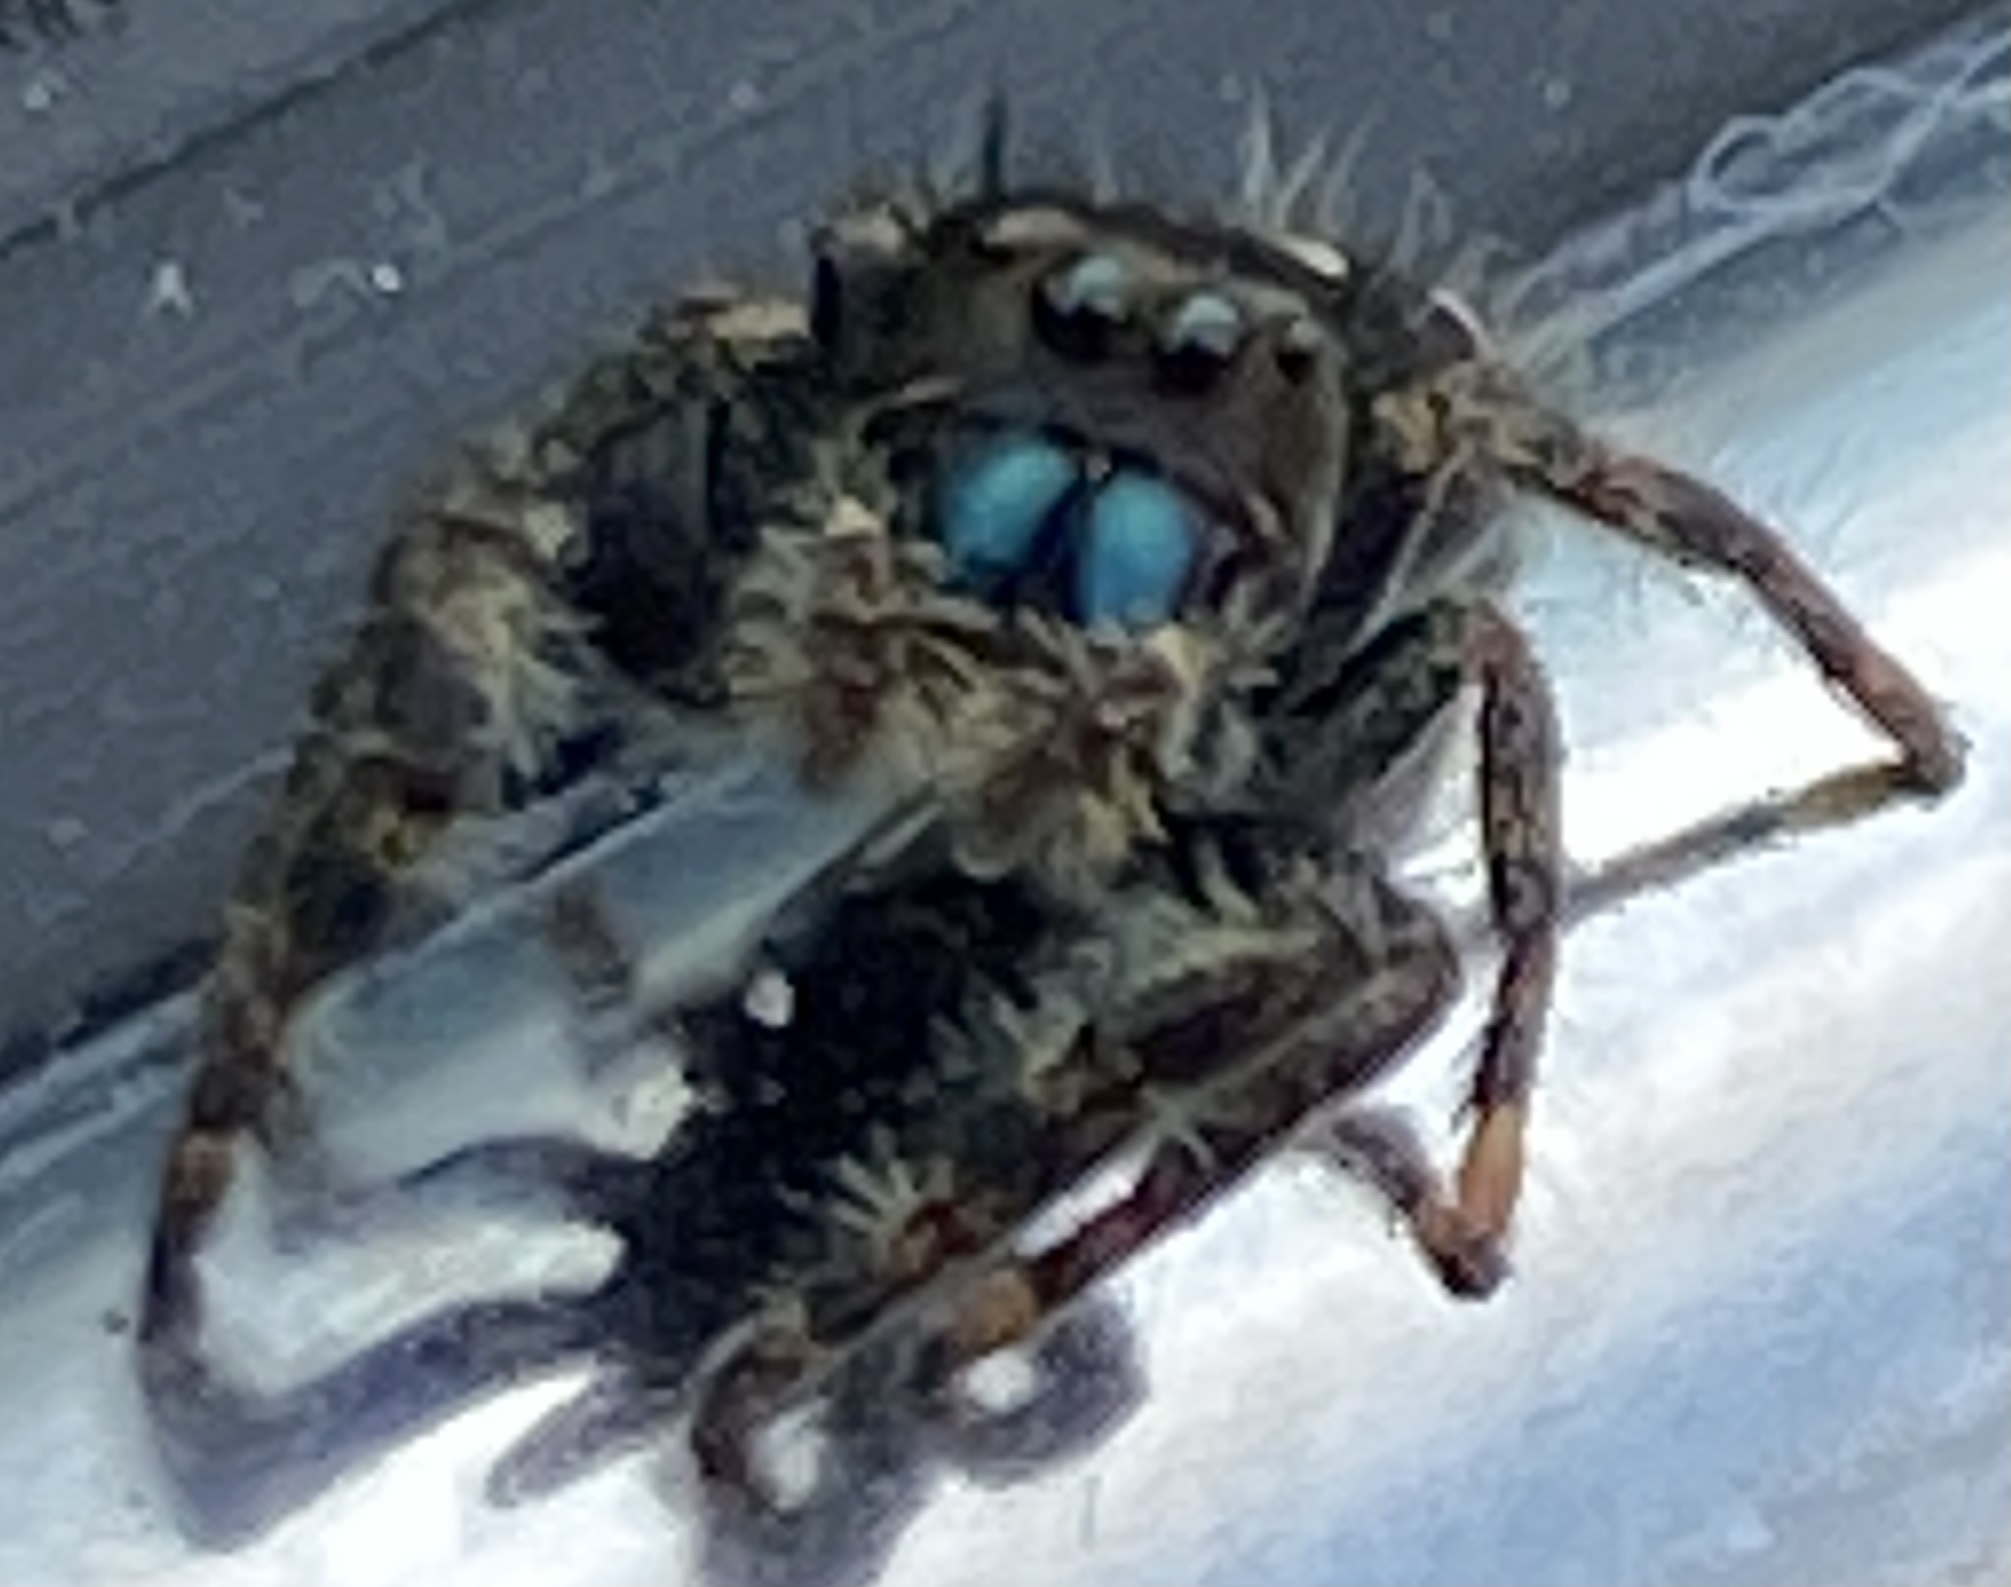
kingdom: Animalia
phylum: Arthropoda
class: Arachnida
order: Araneae
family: Salticidae
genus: Phidippus
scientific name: Phidippus audax
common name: Bold jumper
